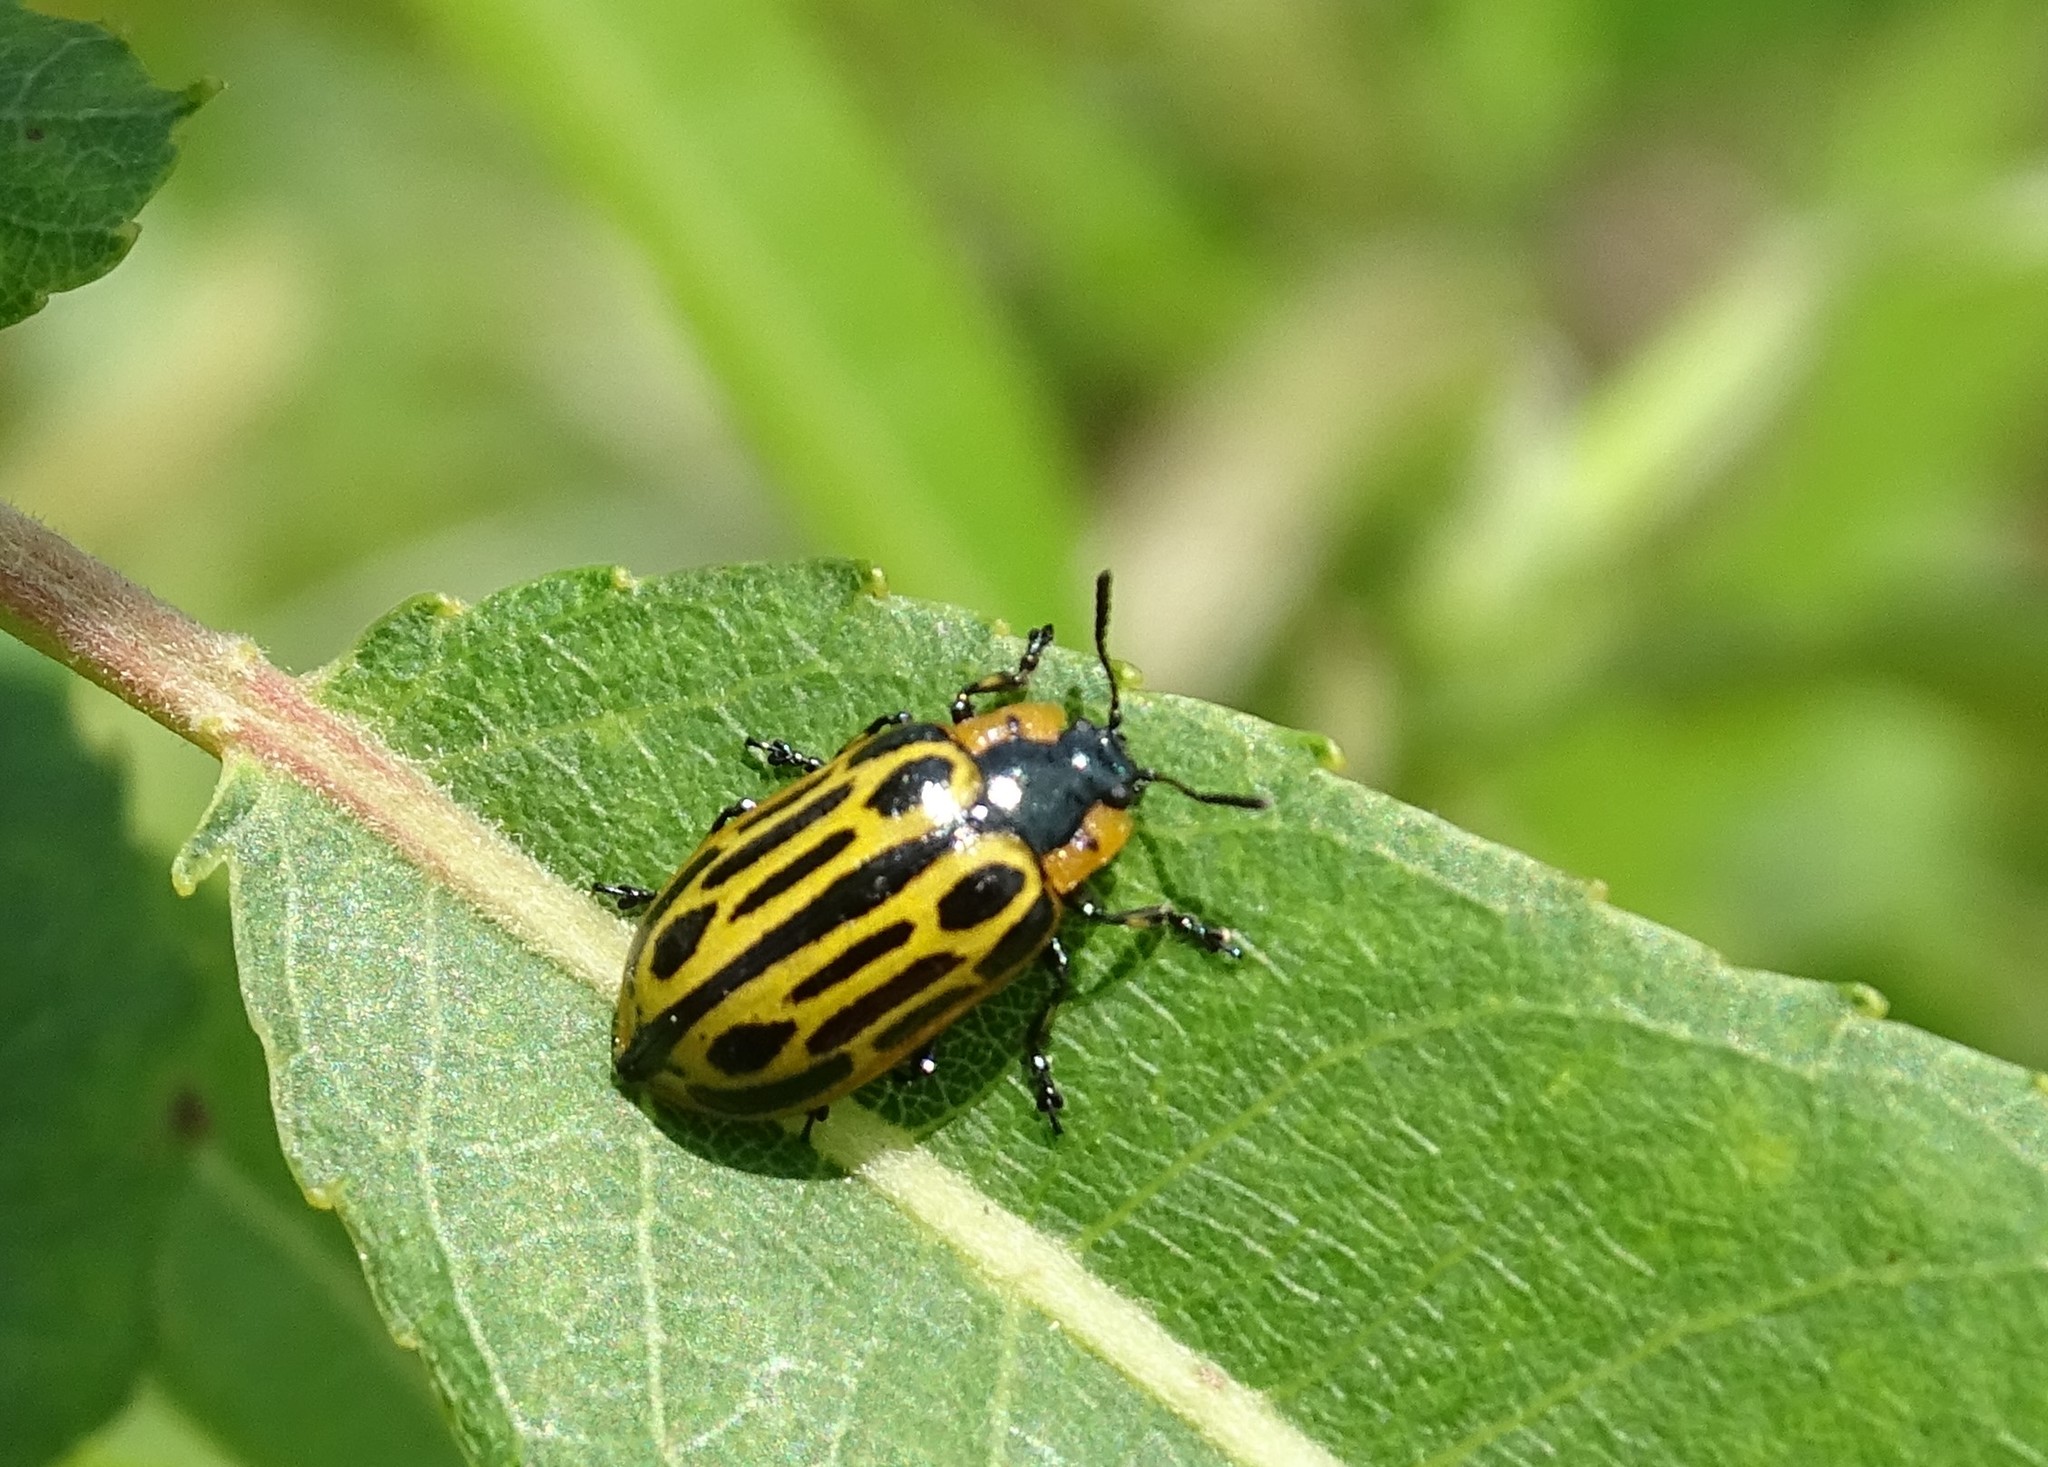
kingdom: Animalia
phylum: Arthropoda
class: Insecta
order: Coleoptera
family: Chrysomelidae
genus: Aethiopocassis
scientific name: Aethiopocassis scripta
